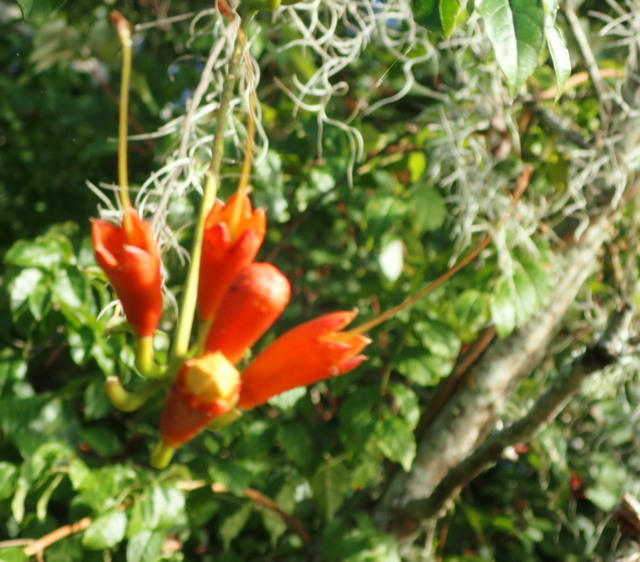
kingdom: Plantae
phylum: Tracheophyta
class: Magnoliopsida
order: Lamiales
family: Bignoniaceae
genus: Campsis
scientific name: Campsis radicans
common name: Trumpet-creeper
